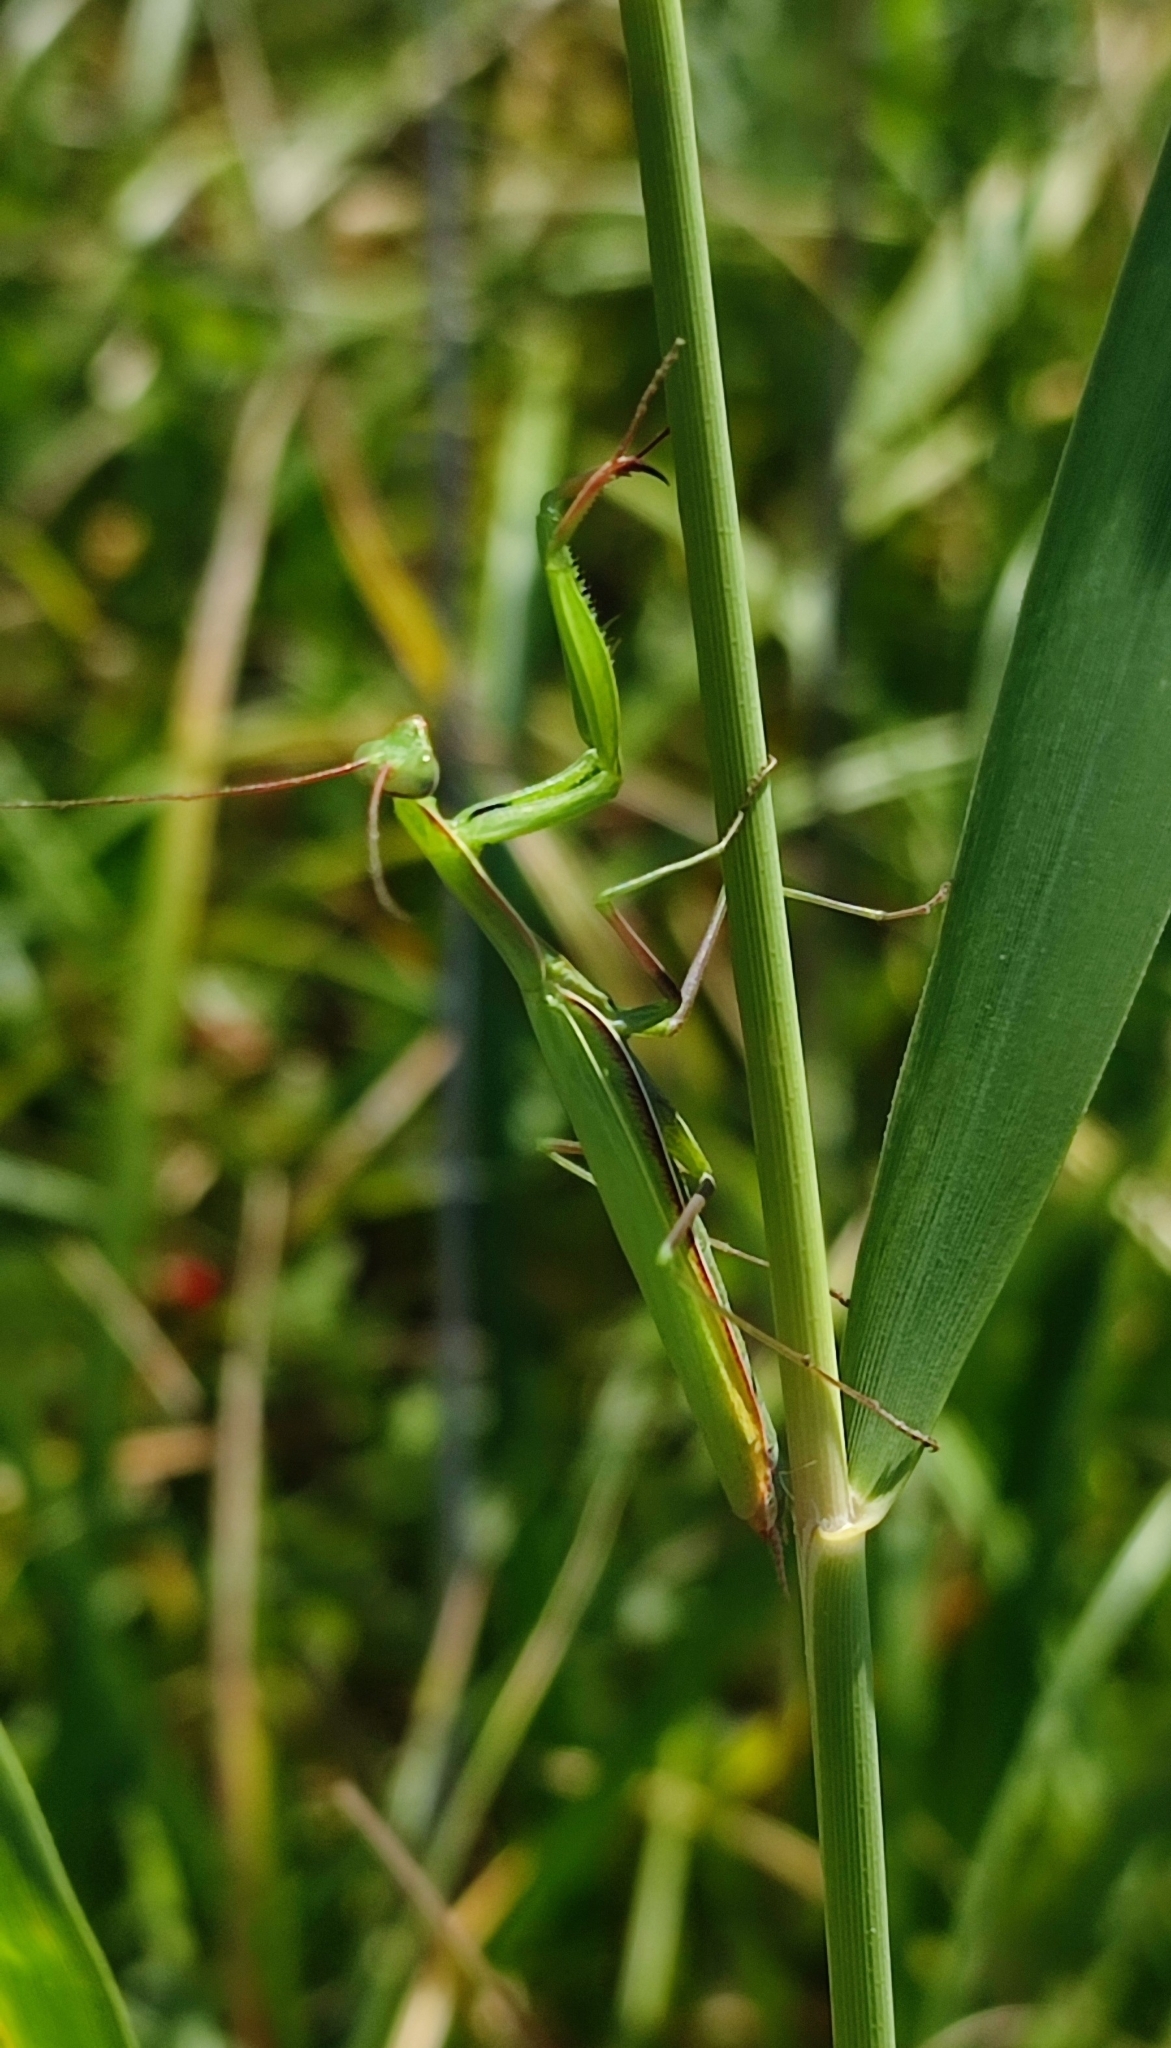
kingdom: Animalia
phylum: Arthropoda
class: Insecta
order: Mantodea
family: Mantidae
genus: Mantis
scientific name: Mantis religiosa
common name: Praying mantis
